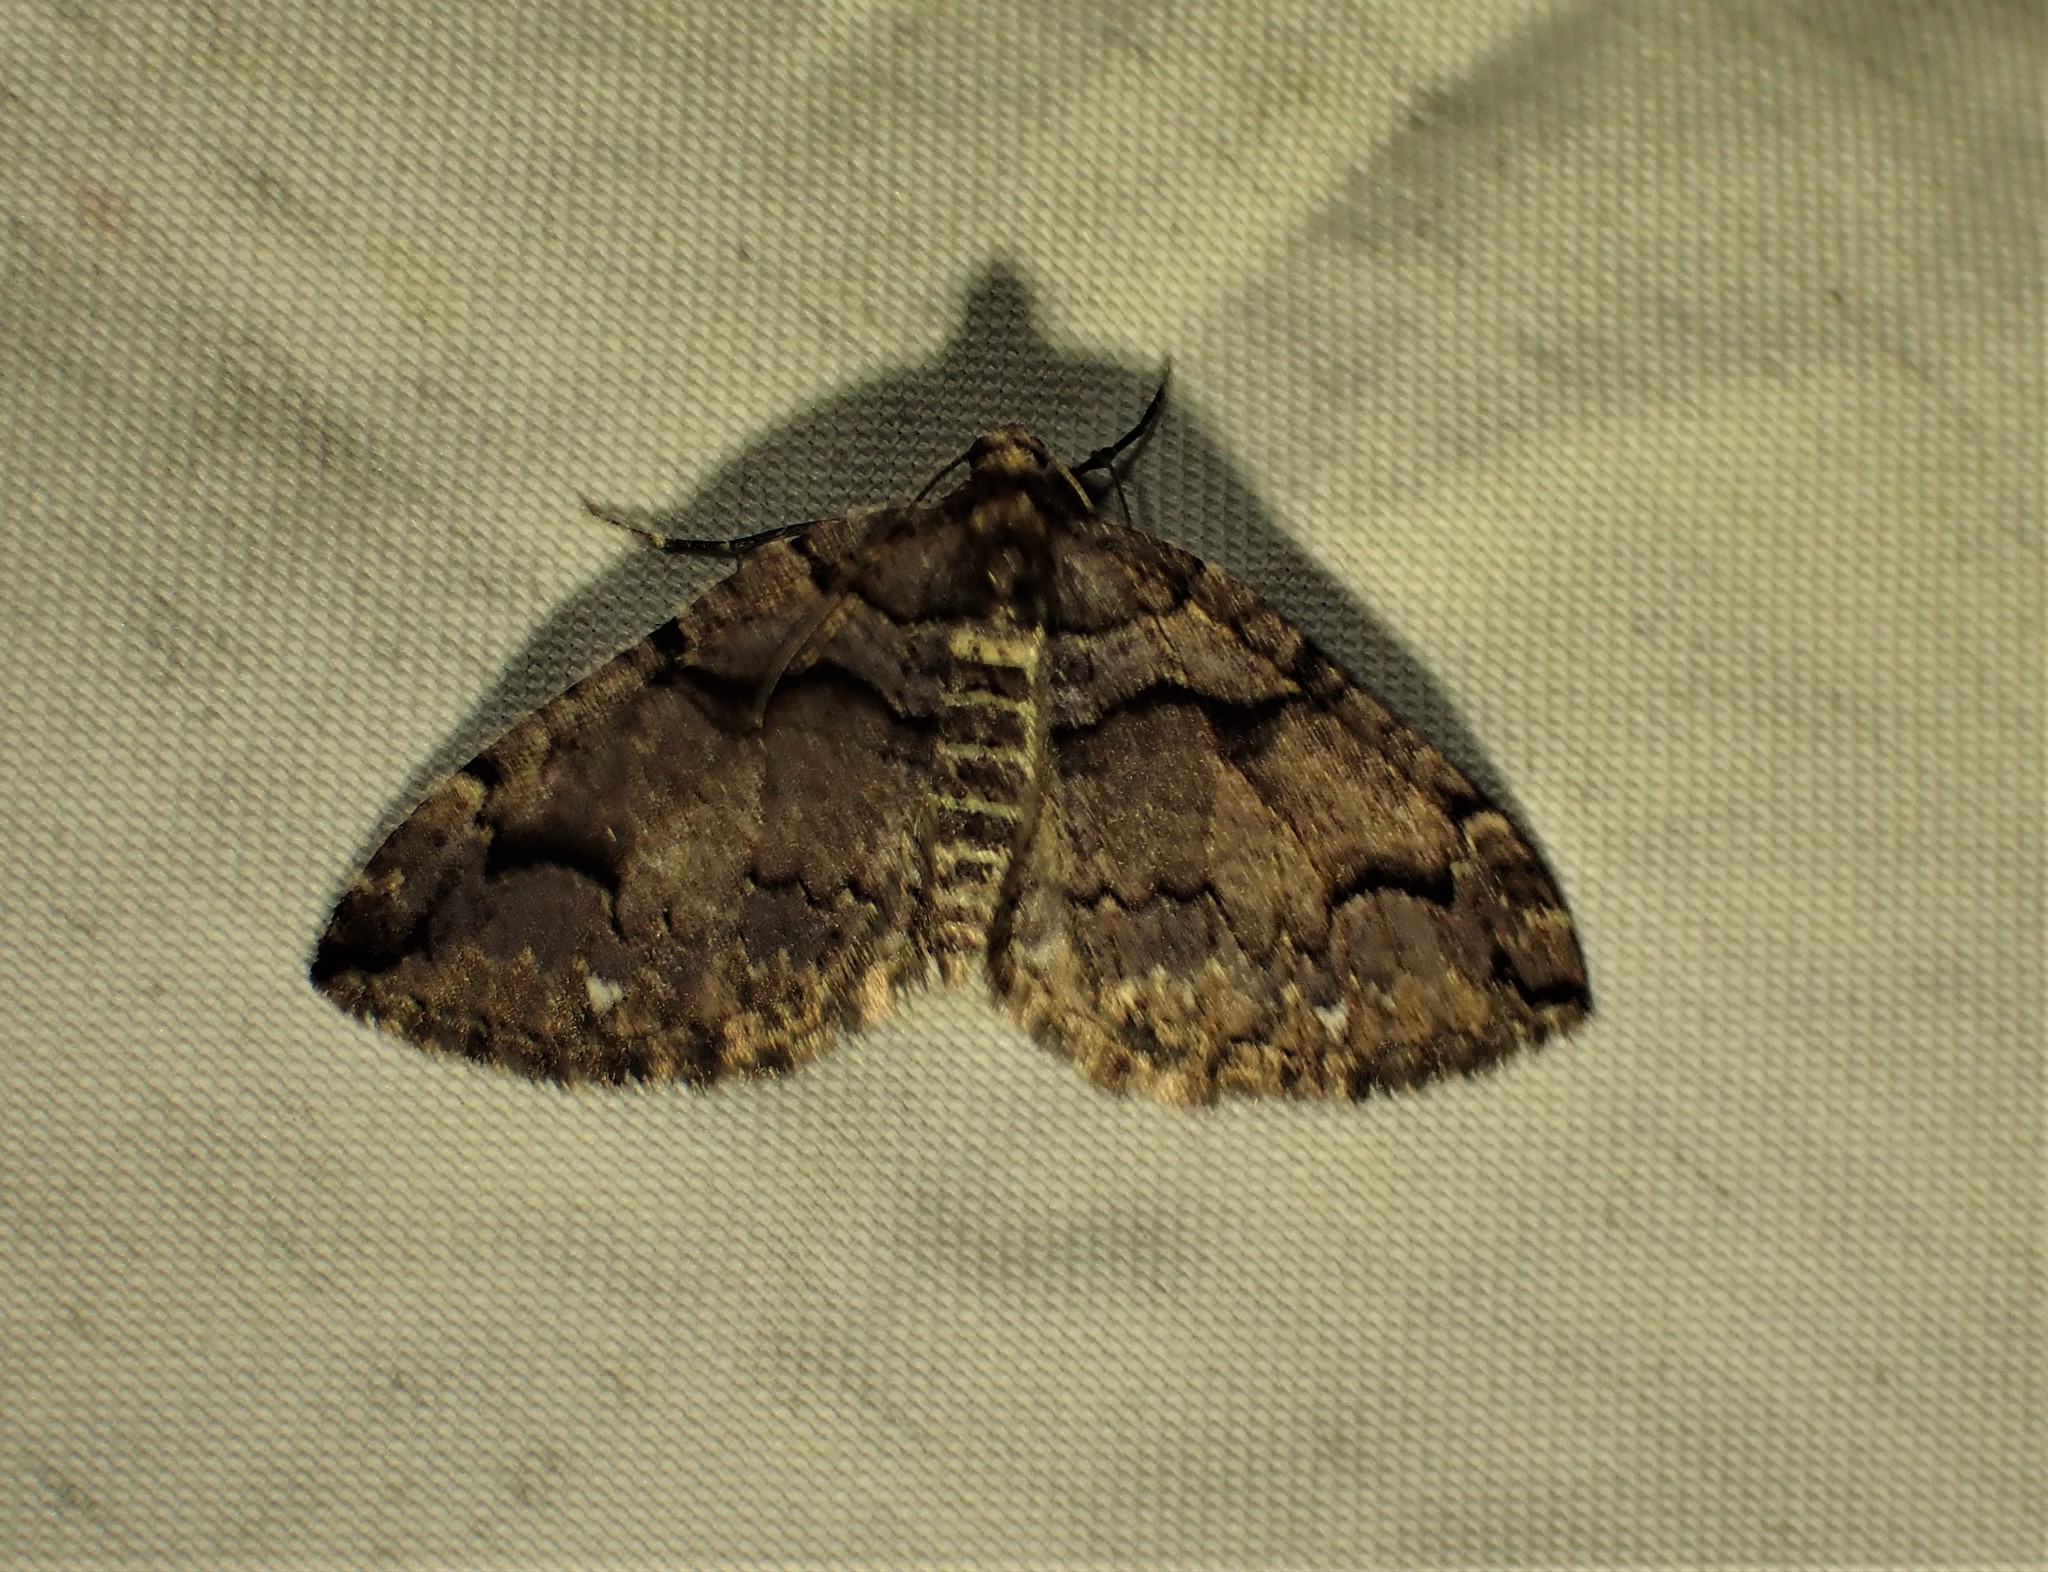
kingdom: Animalia
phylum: Arthropoda
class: Insecta
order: Lepidoptera
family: Geometridae
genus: Anticlea
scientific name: Anticlea vasiliata
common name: Variable carpet
